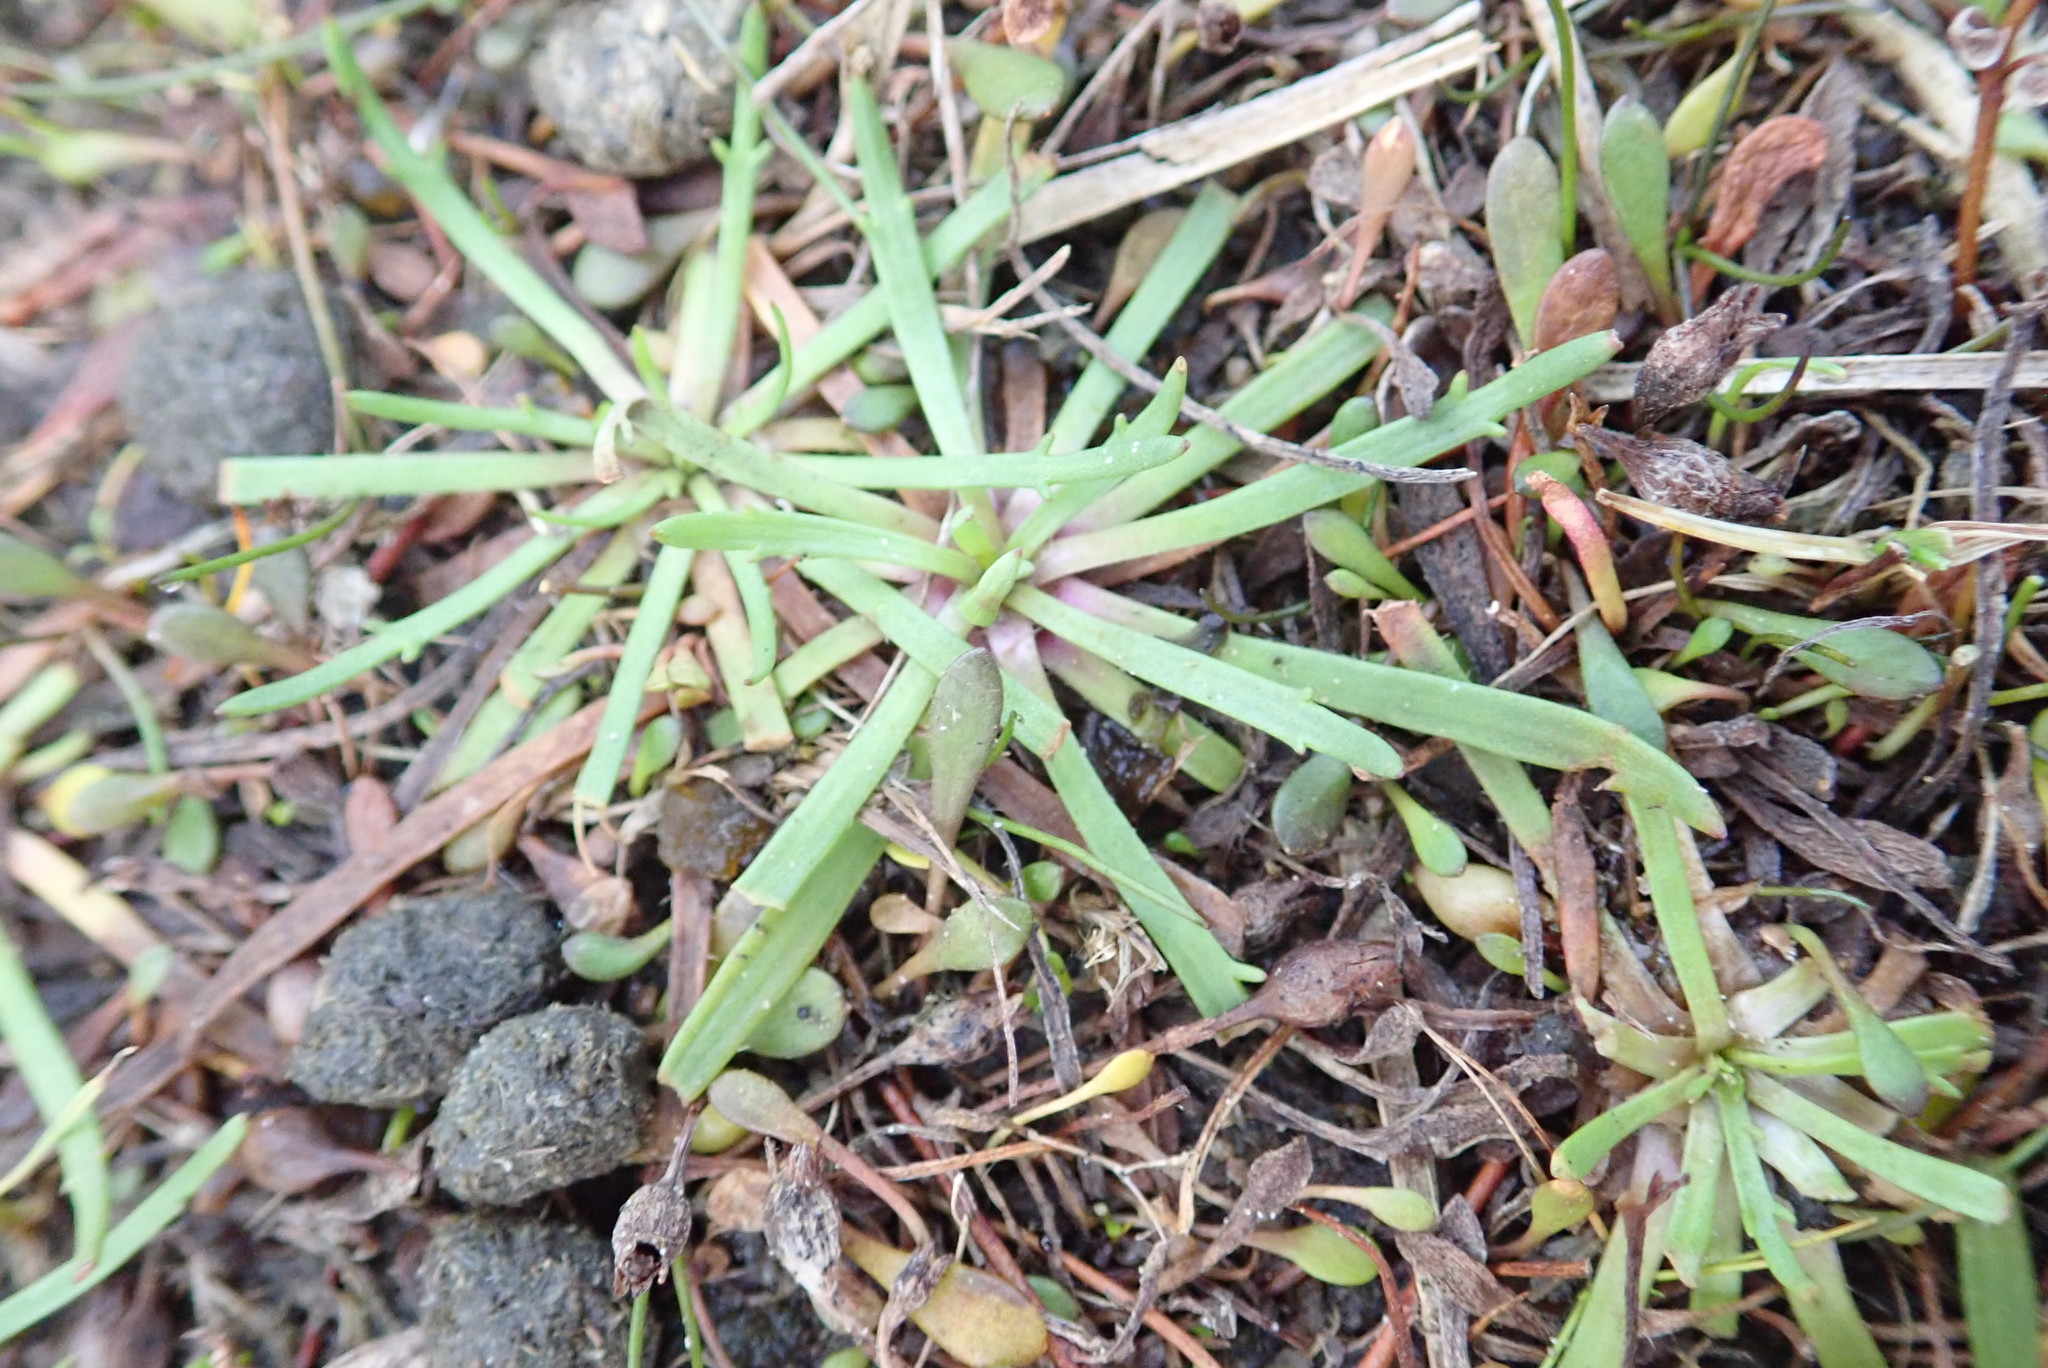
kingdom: Plantae
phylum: Tracheophyta
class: Magnoliopsida
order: Lamiales
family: Plantaginaceae
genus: Plantago
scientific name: Plantago coronopus
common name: Buck's-horn plantain
